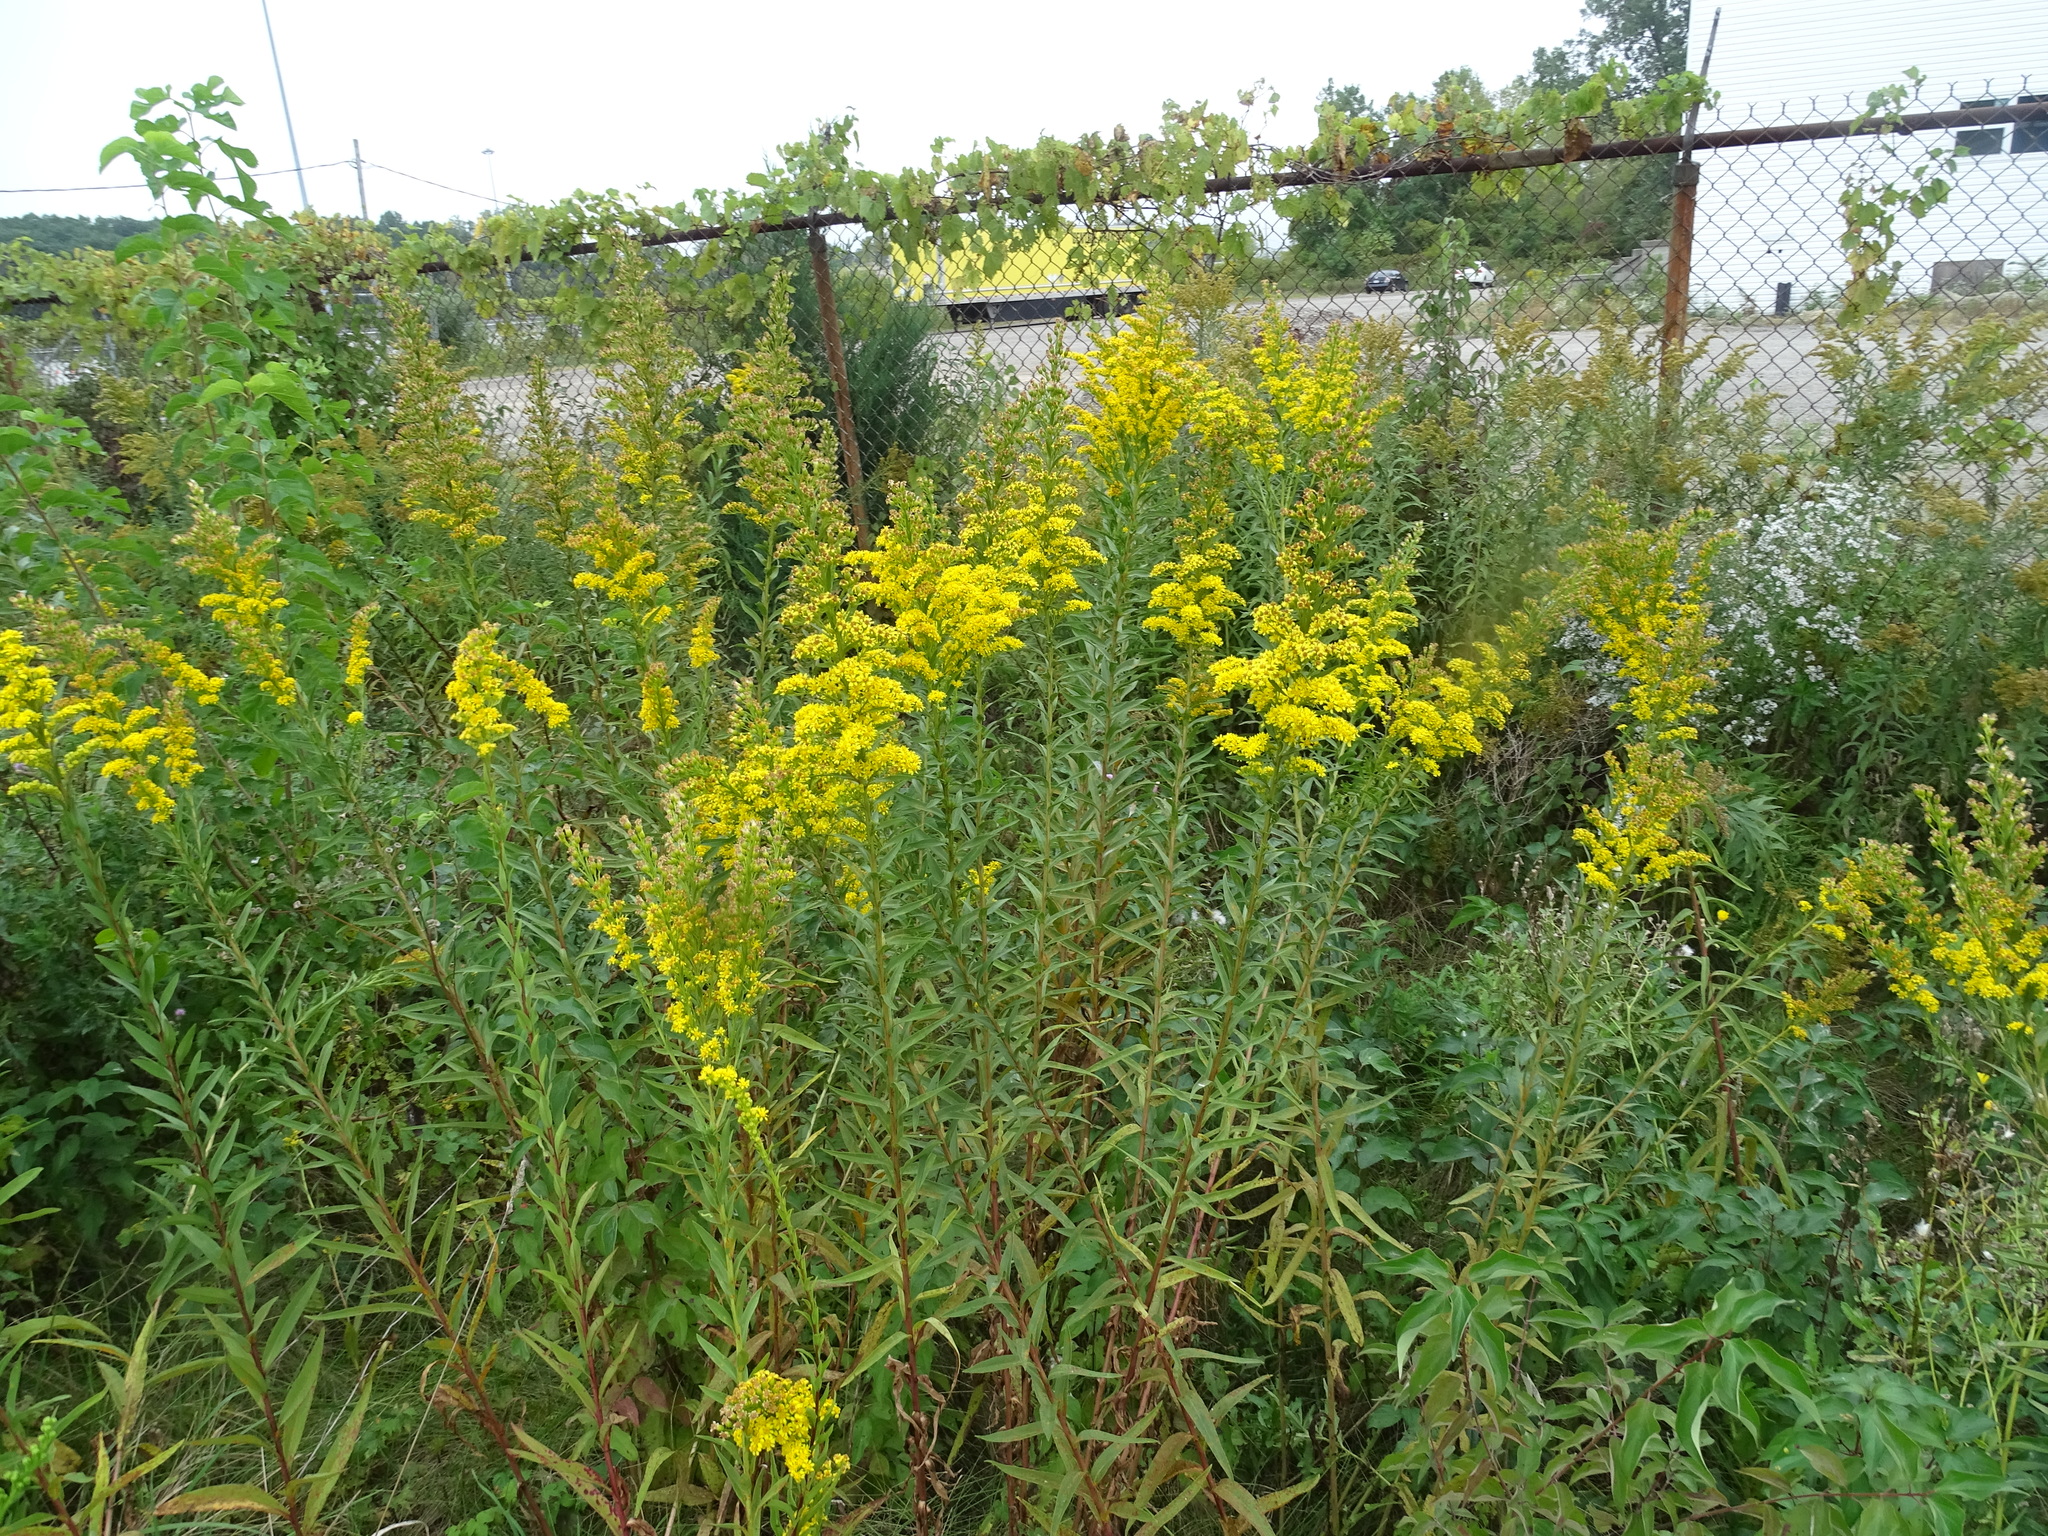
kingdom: Plantae
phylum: Tracheophyta
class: Magnoliopsida
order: Asterales
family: Asteraceae
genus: Solidago
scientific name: Solidago sempervirens
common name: Salt-marsh goldenrod
